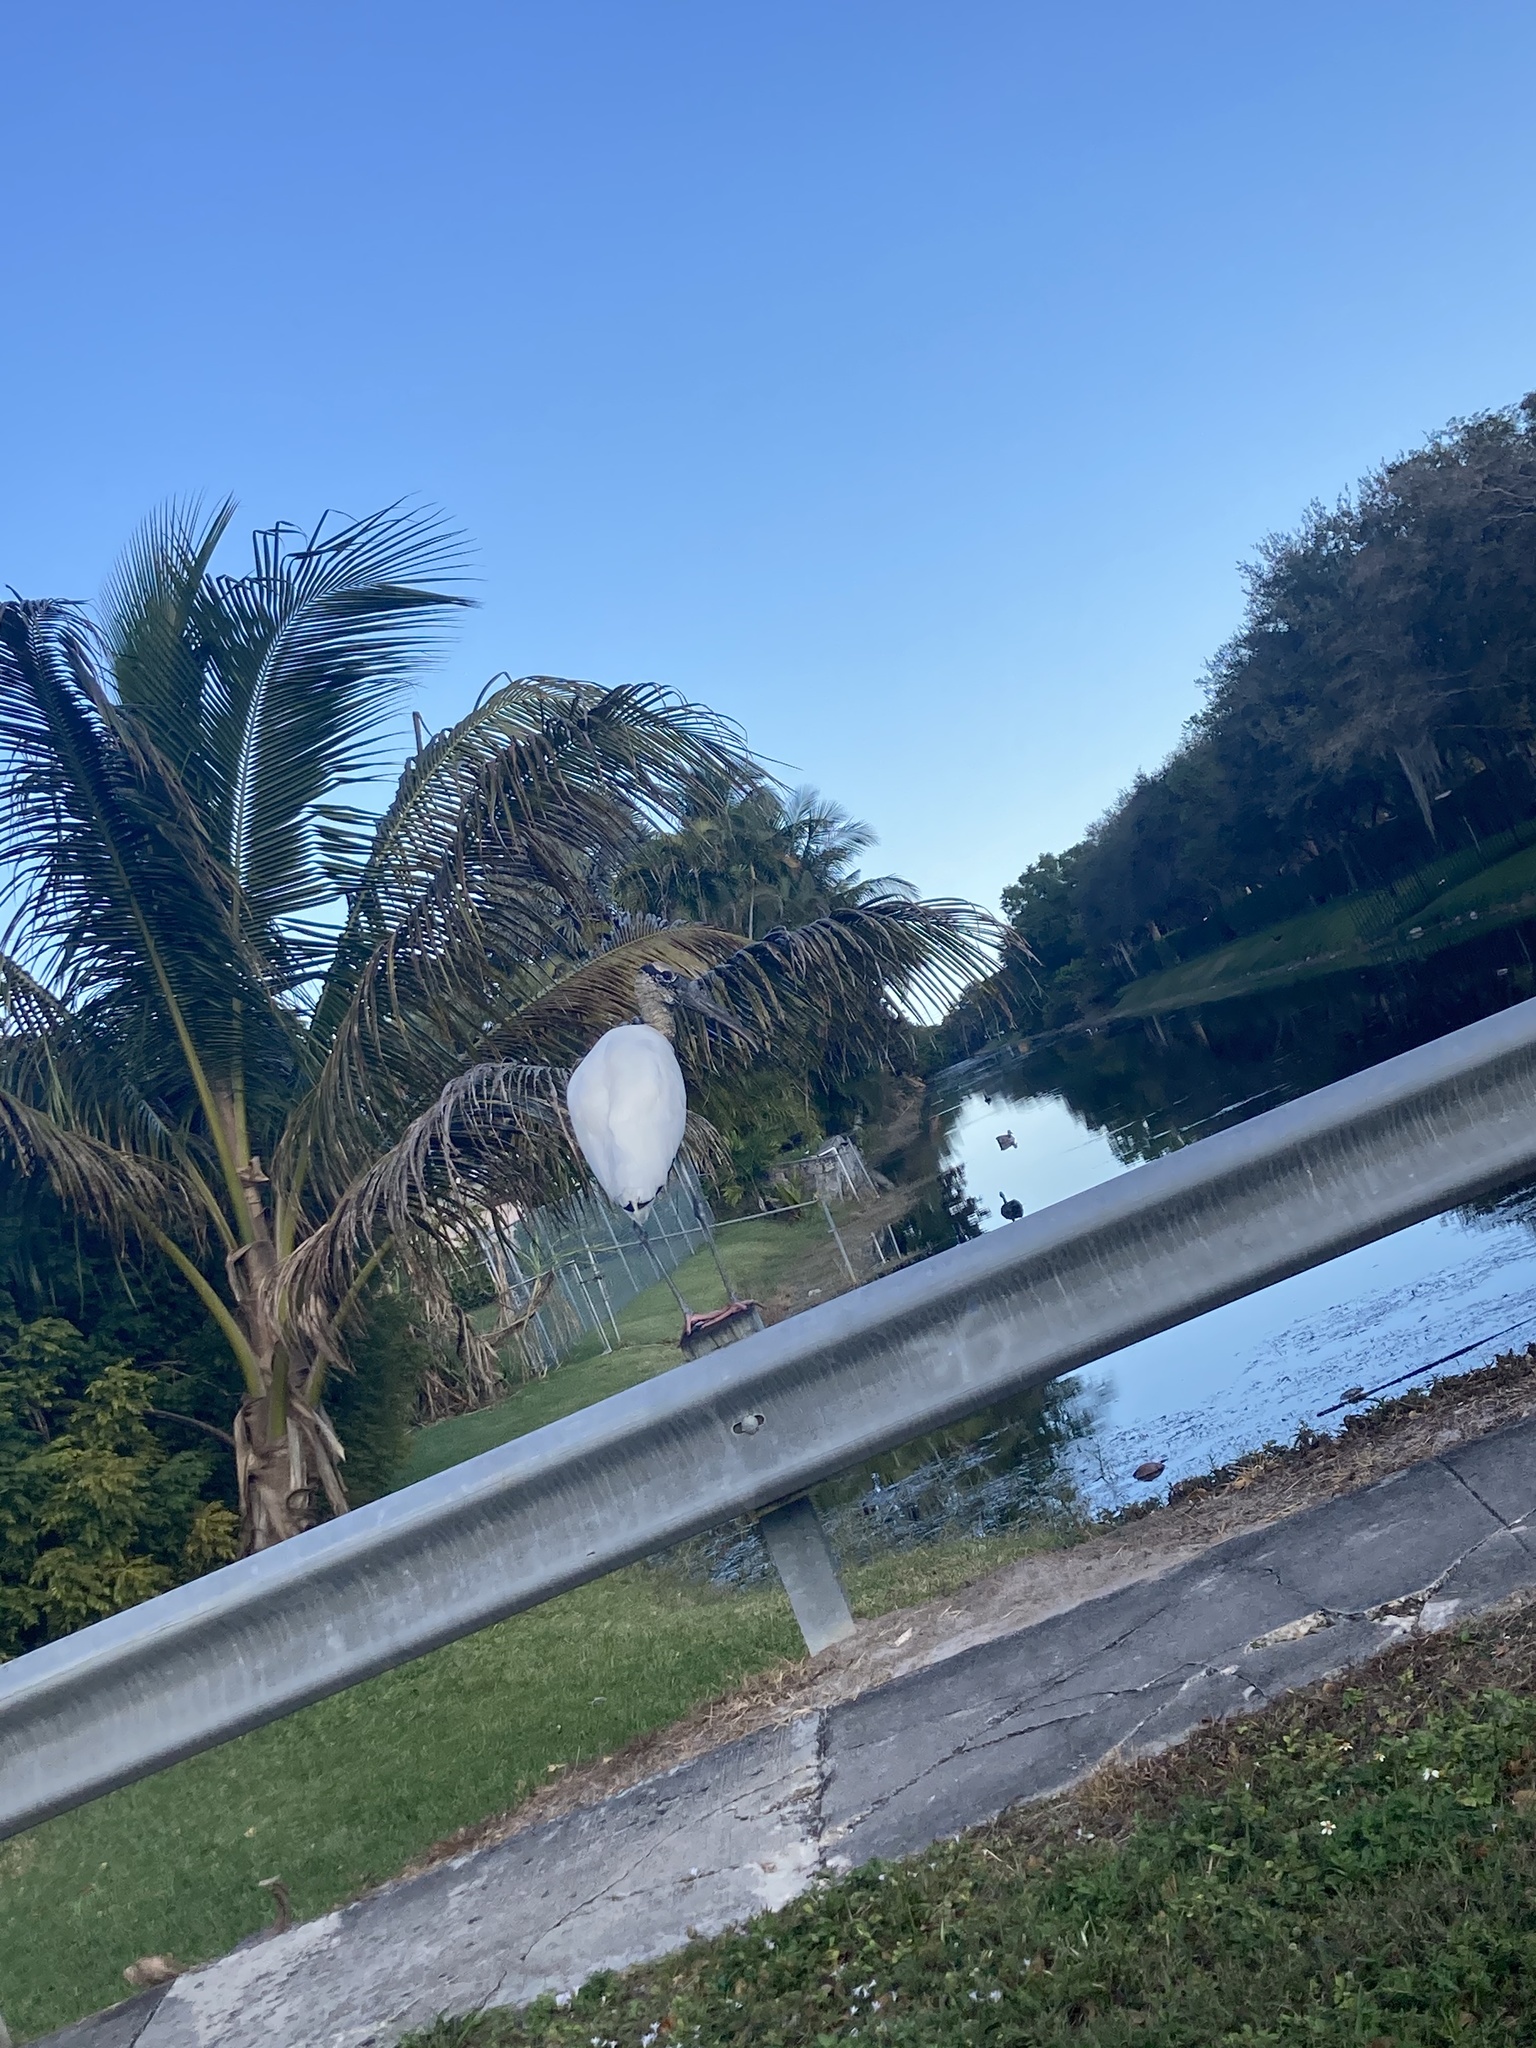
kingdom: Animalia
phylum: Chordata
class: Aves
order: Ciconiiformes
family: Ciconiidae
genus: Mycteria
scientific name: Mycteria americana
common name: Wood stork
